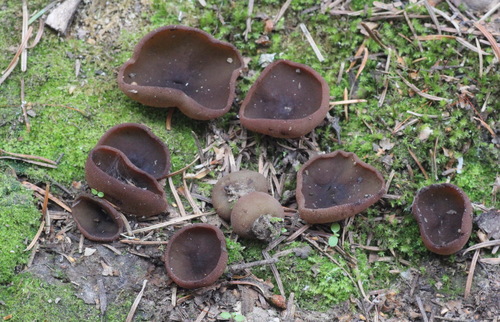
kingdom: Fungi
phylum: Ascomycota
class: Pezizomycetes
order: Pezizales
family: Pezizaceae
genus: Legaliana
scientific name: Legaliana
